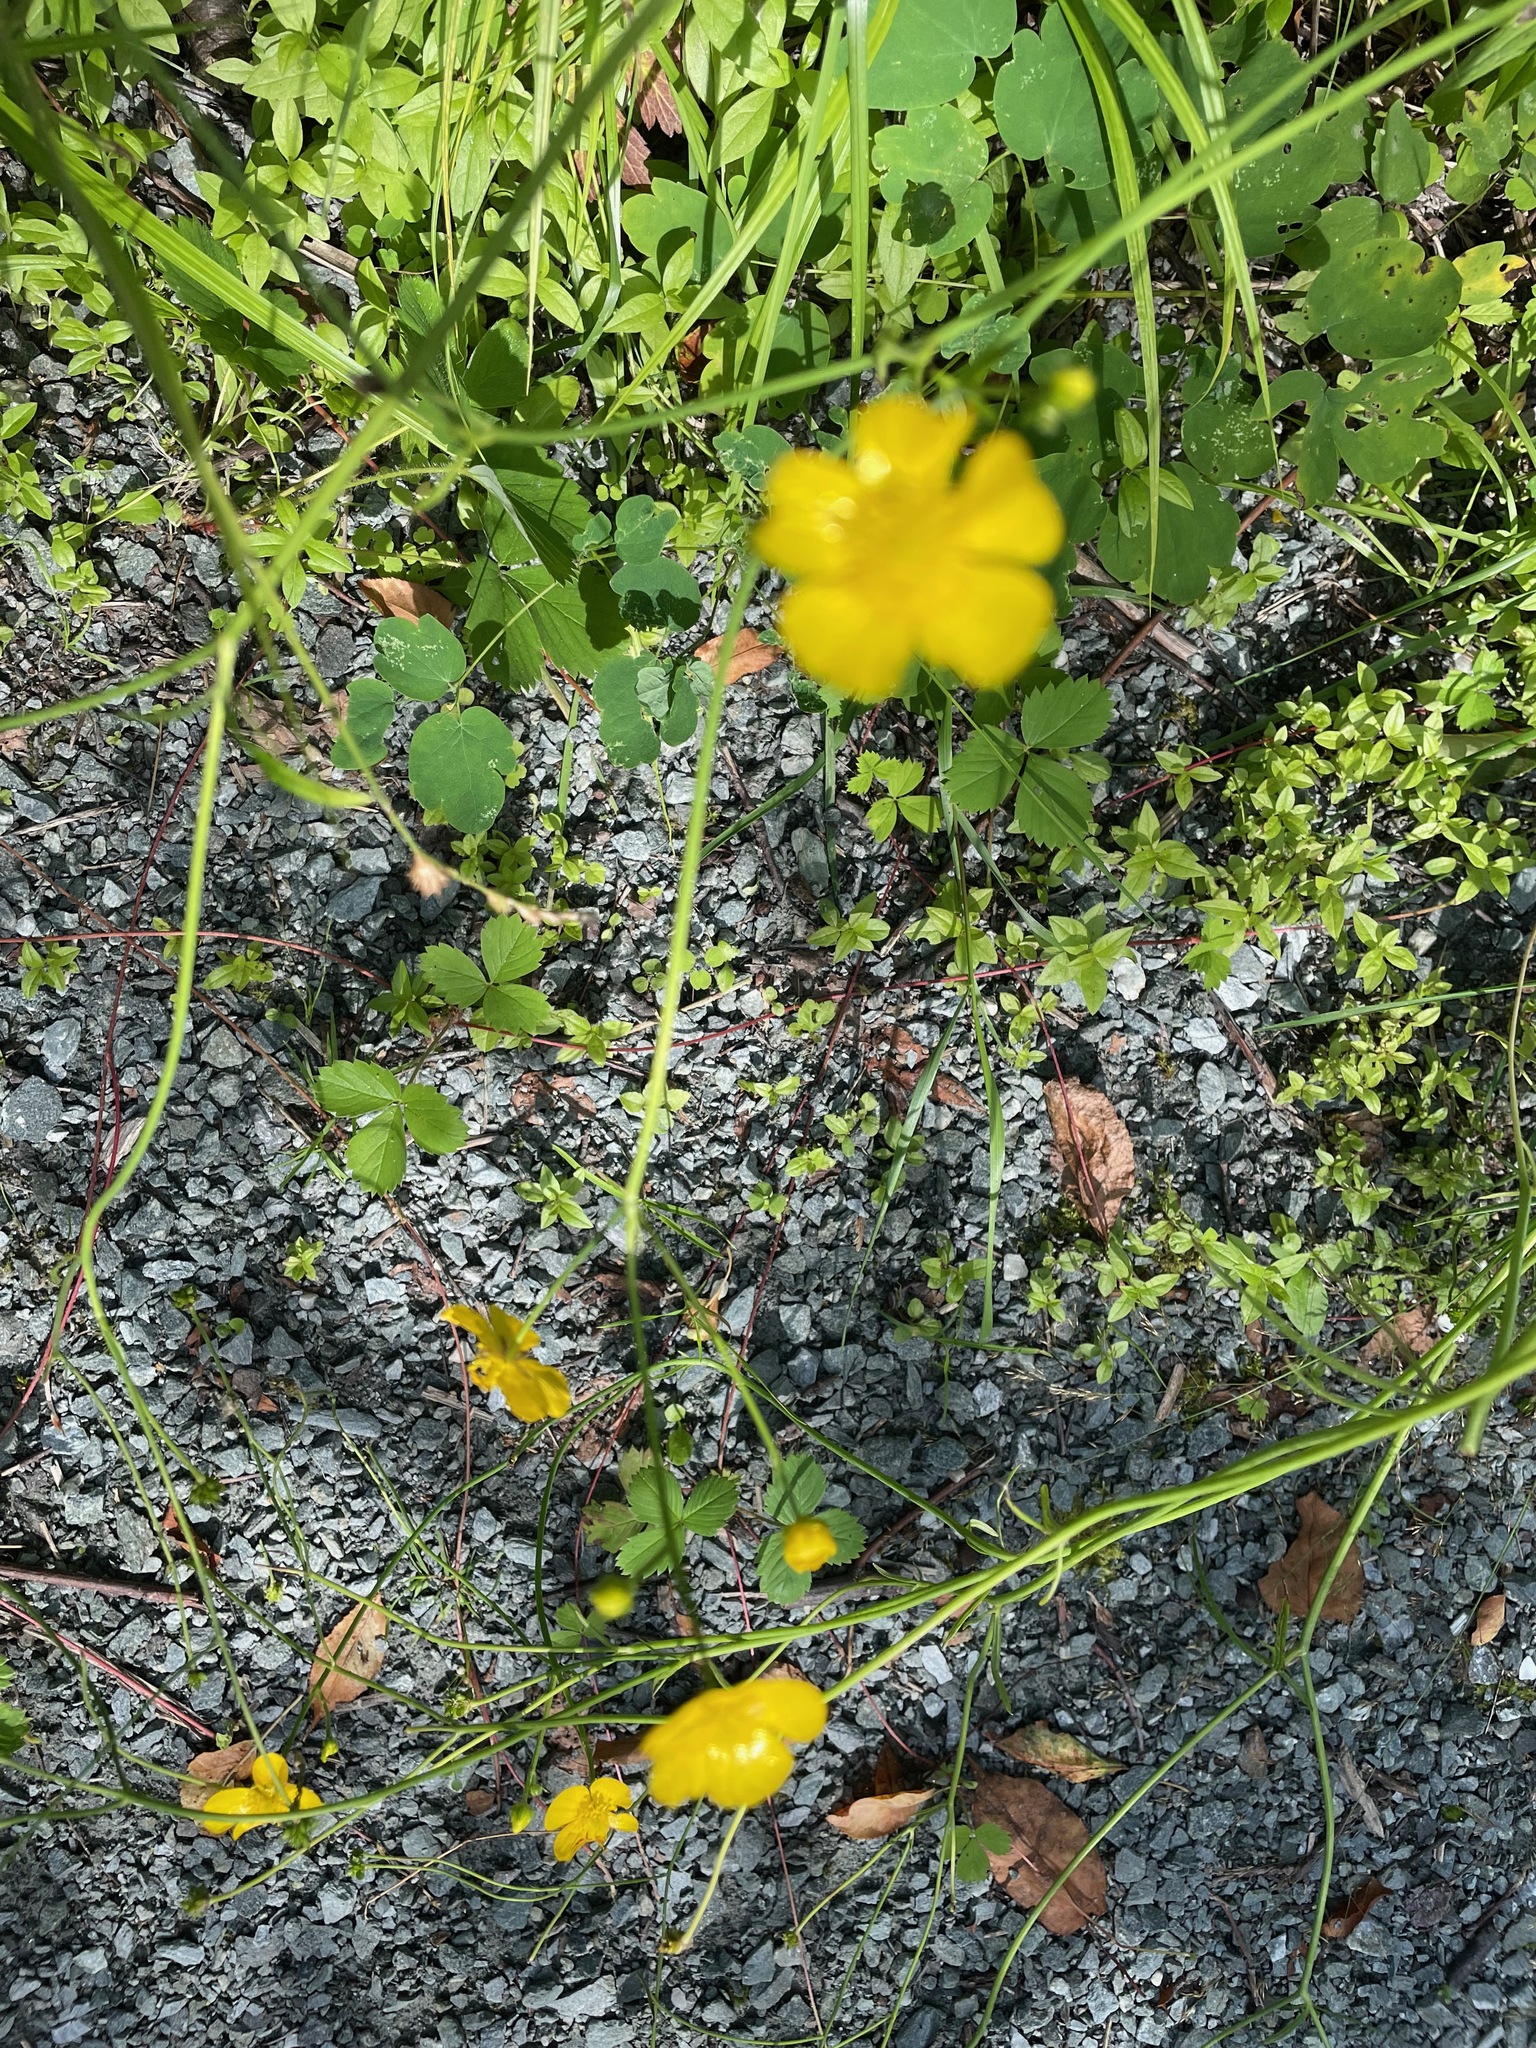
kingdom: Plantae
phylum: Tracheophyta
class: Magnoliopsida
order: Ranunculales
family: Ranunculaceae
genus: Ranunculus
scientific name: Ranunculus acris
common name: Meadow buttercup
